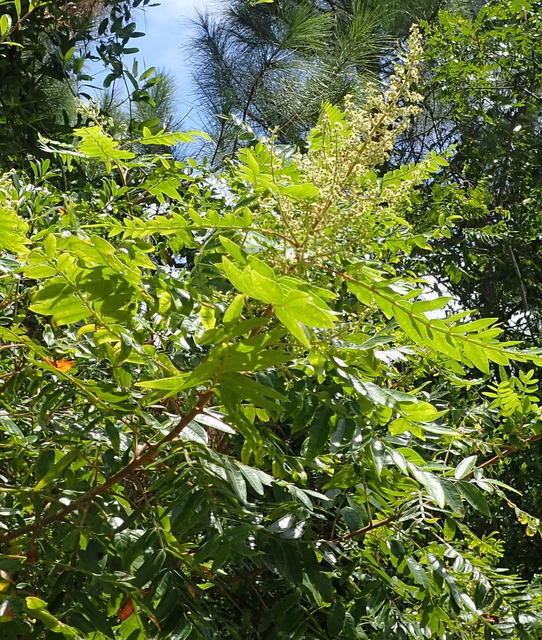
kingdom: Plantae
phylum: Tracheophyta
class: Magnoliopsida
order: Sapindales
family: Anacardiaceae
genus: Rhus
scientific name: Rhus copallina
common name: Shining sumac
